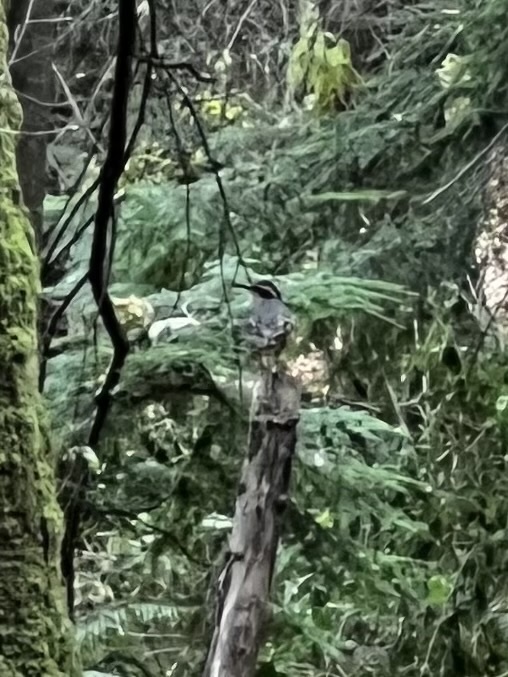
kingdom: Animalia
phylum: Chordata
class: Aves
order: Passeriformes
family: Turdidae
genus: Ixoreus
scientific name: Ixoreus naevius
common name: Varied thrush
